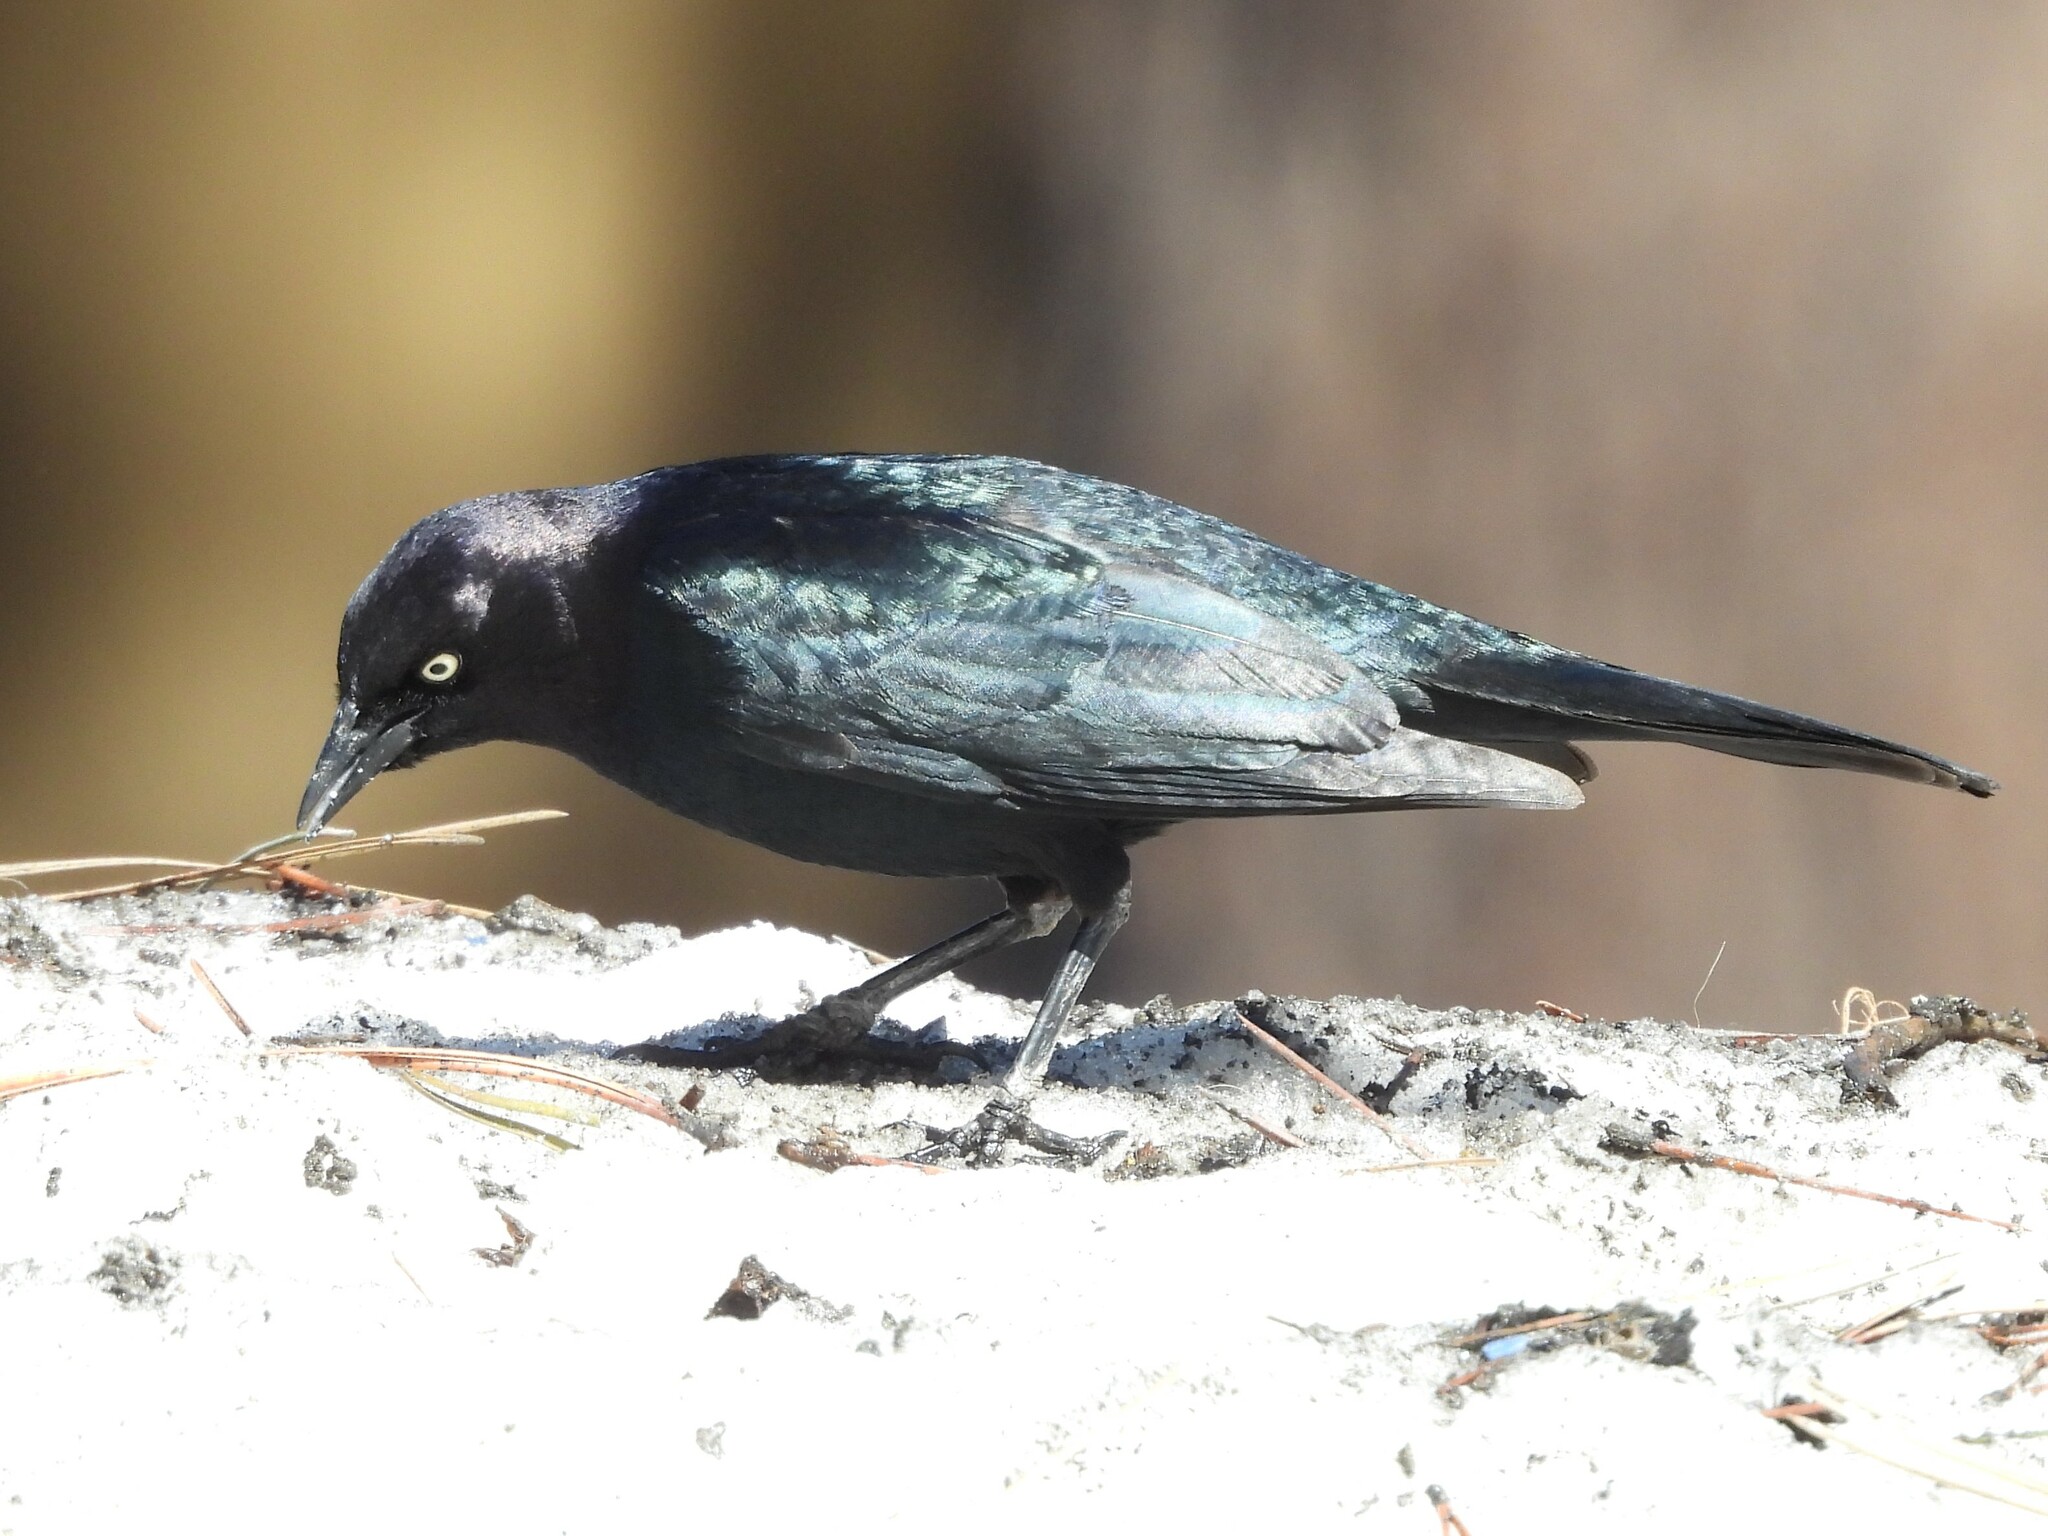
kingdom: Animalia
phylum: Chordata
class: Aves
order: Passeriformes
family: Icteridae
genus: Euphagus
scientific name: Euphagus cyanocephalus
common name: Brewer's blackbird
